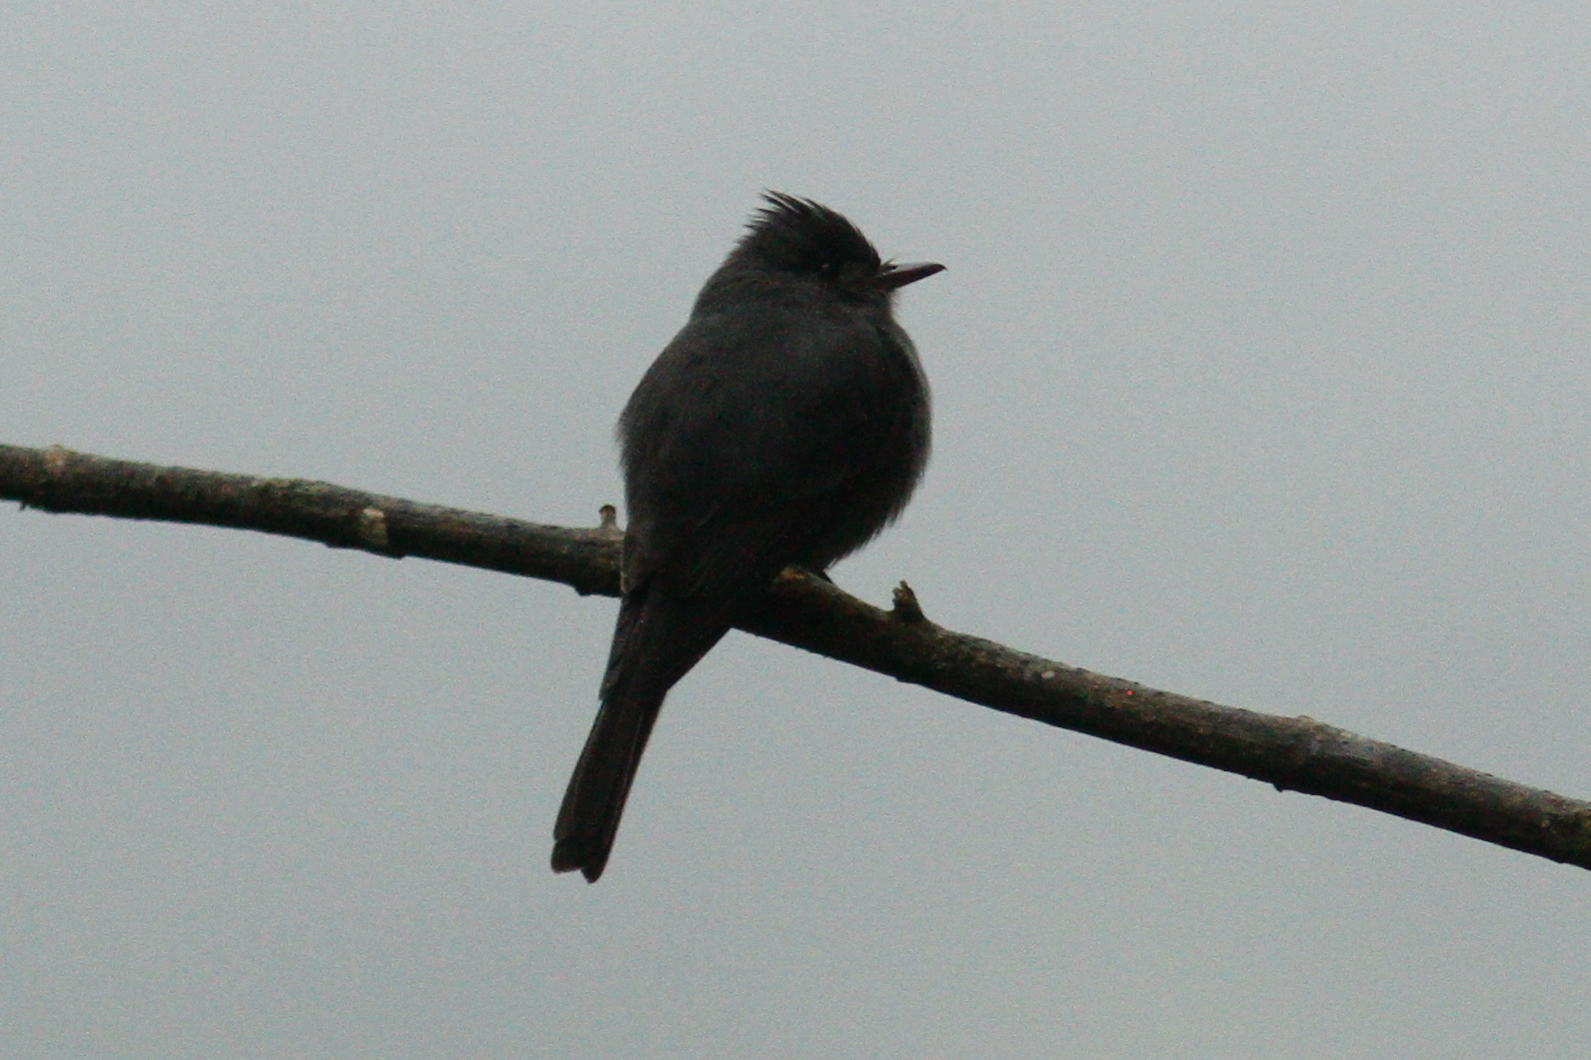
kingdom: Animalia
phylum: Chordata
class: Aves
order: Passeriformes
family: Tyrannidae
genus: Contopus
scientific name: Contopus fumigatus
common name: Smoke-colored pewee
